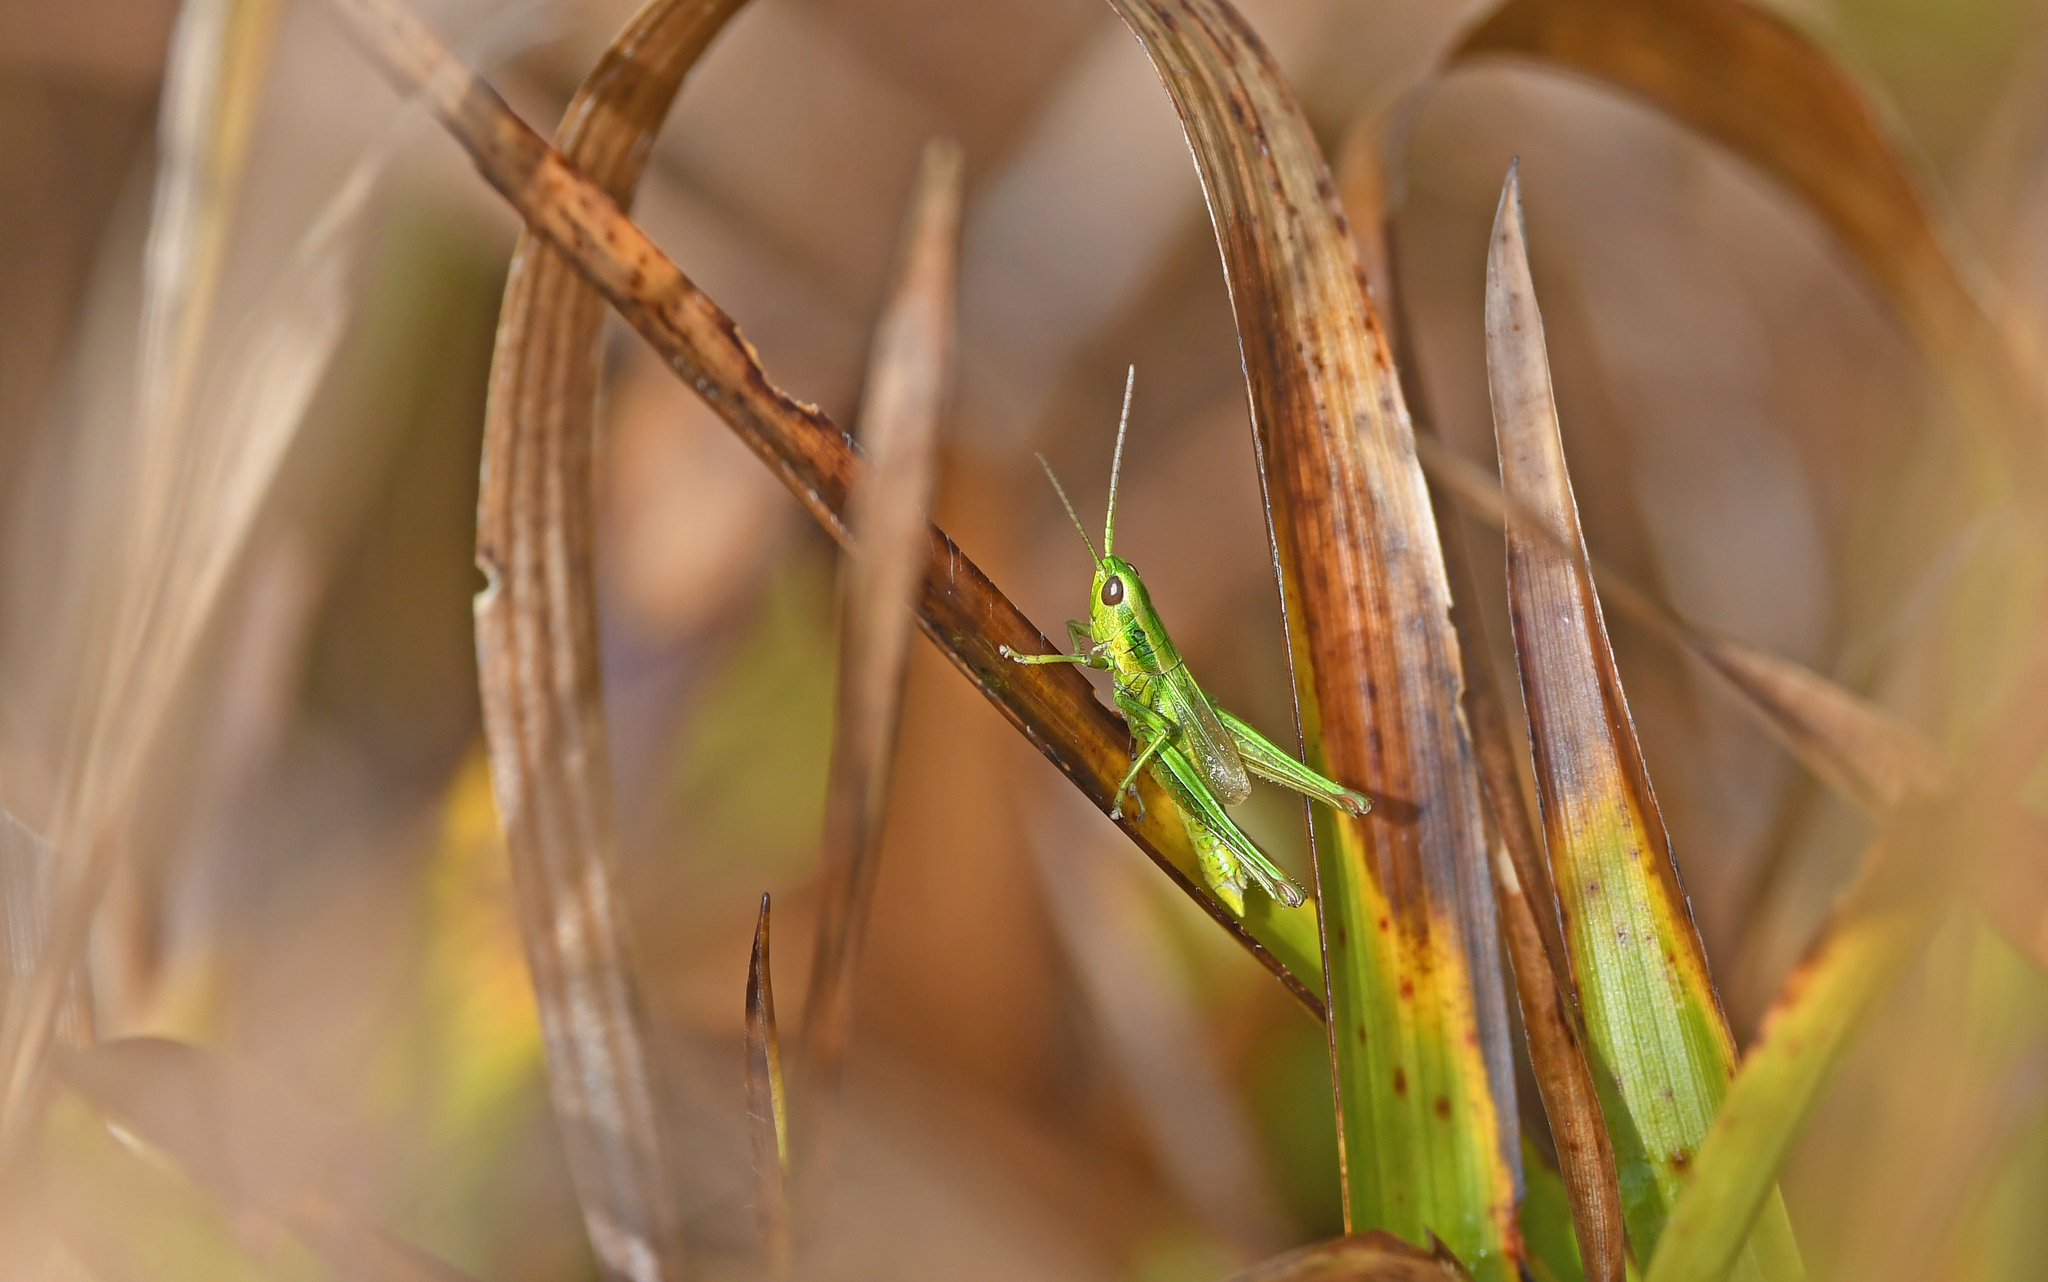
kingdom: Animalia
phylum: Arthropoda
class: Insecta
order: Orthoptera
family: Acrididae
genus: Euthystira
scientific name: Euthystira brachyptera
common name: Small gold grasshopper
